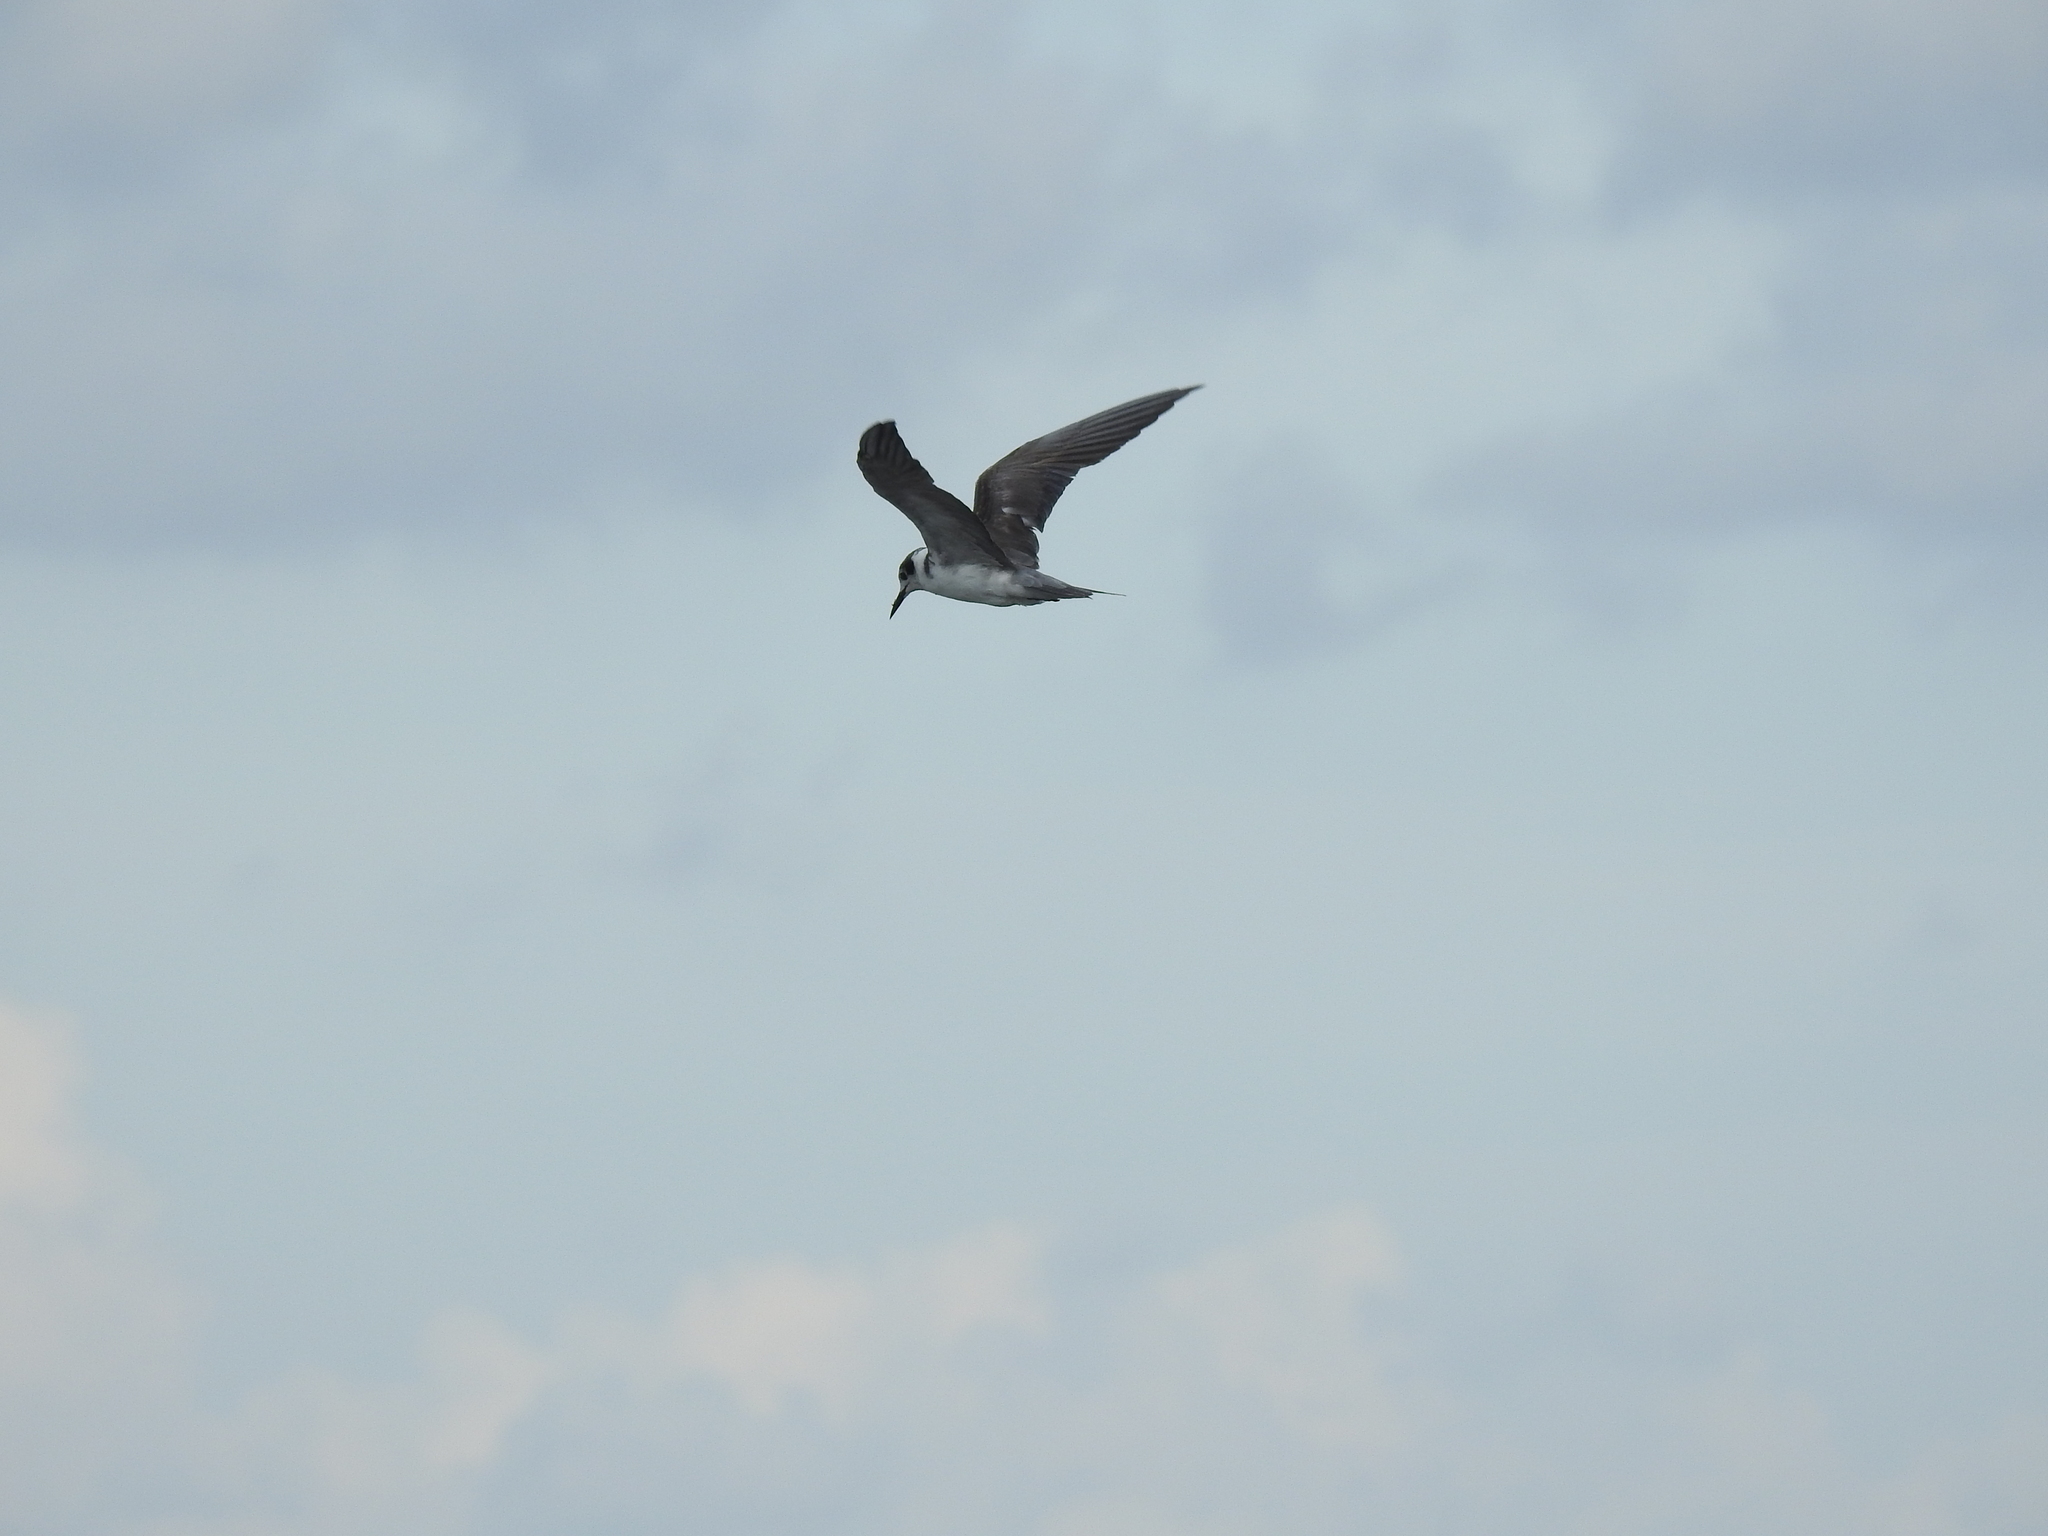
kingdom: Animalia
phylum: Chordata
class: Aves
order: Charadriiformes
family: Laridae
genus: Chlidonias
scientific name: Chlidonias niger
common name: Black tern
